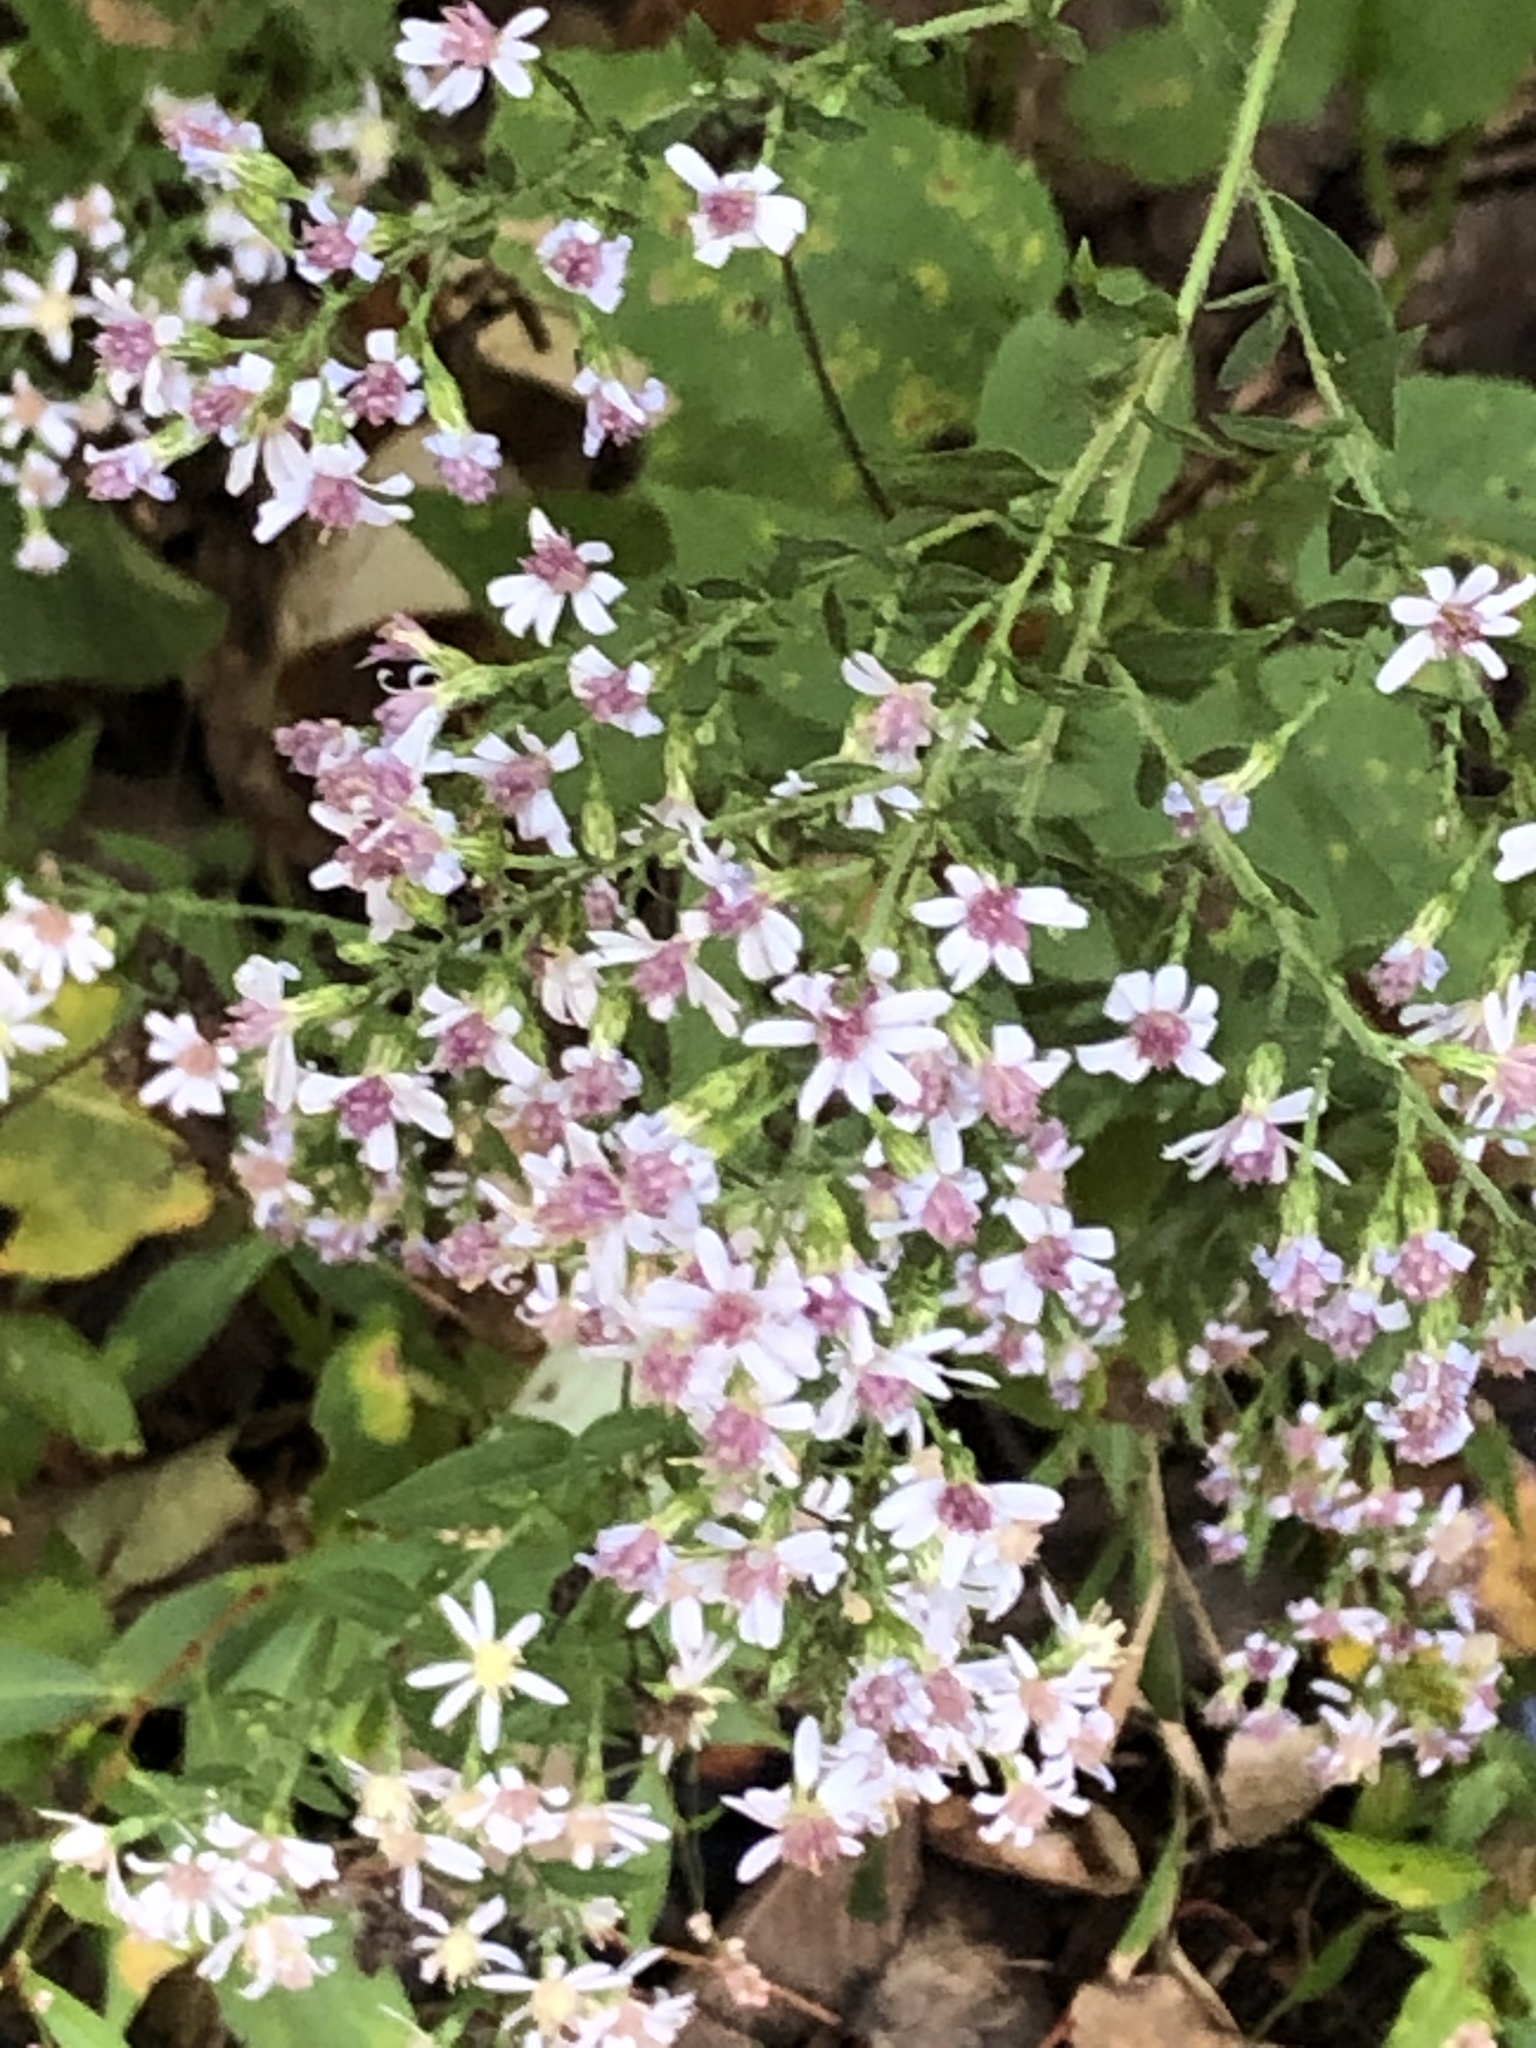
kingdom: Plantae
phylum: Tracheophyta
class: Magnoliopsida
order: Asterales
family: Asteraceae
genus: Symphyotrichum
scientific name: Symphyotrichum cordifolium
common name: Beeweed
